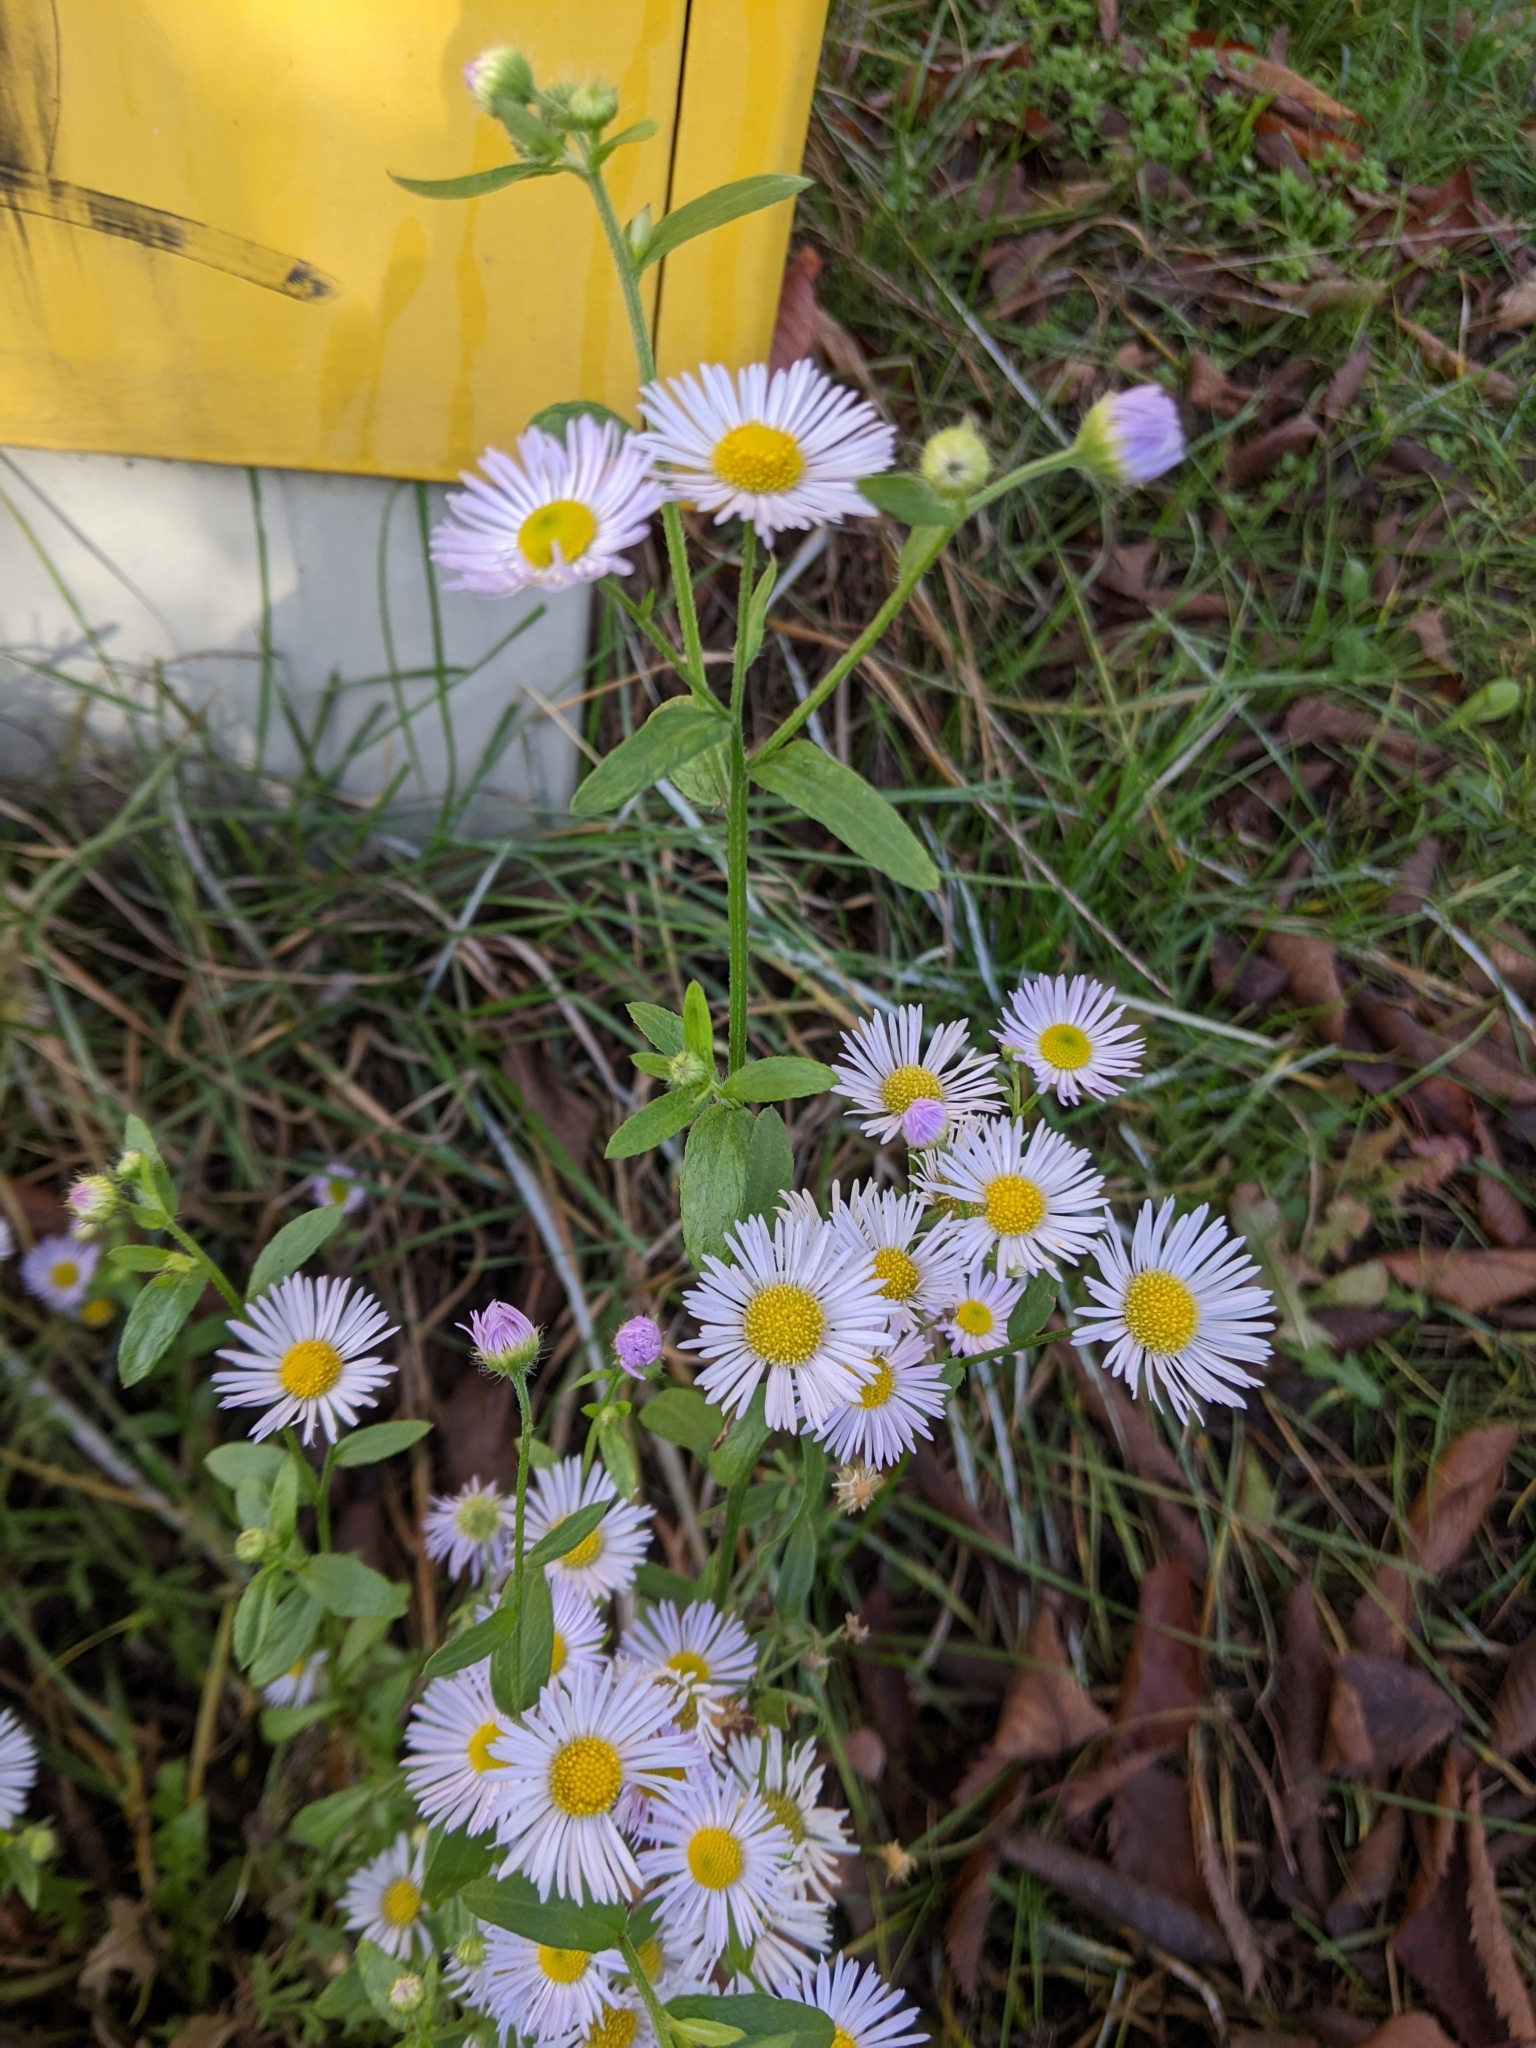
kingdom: Plantae
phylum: Tracheophyta
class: Magnoliopsida
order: Asterales
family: Asteraceae
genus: Erigeron
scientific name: Erigeron annuus
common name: Tall fleabane
